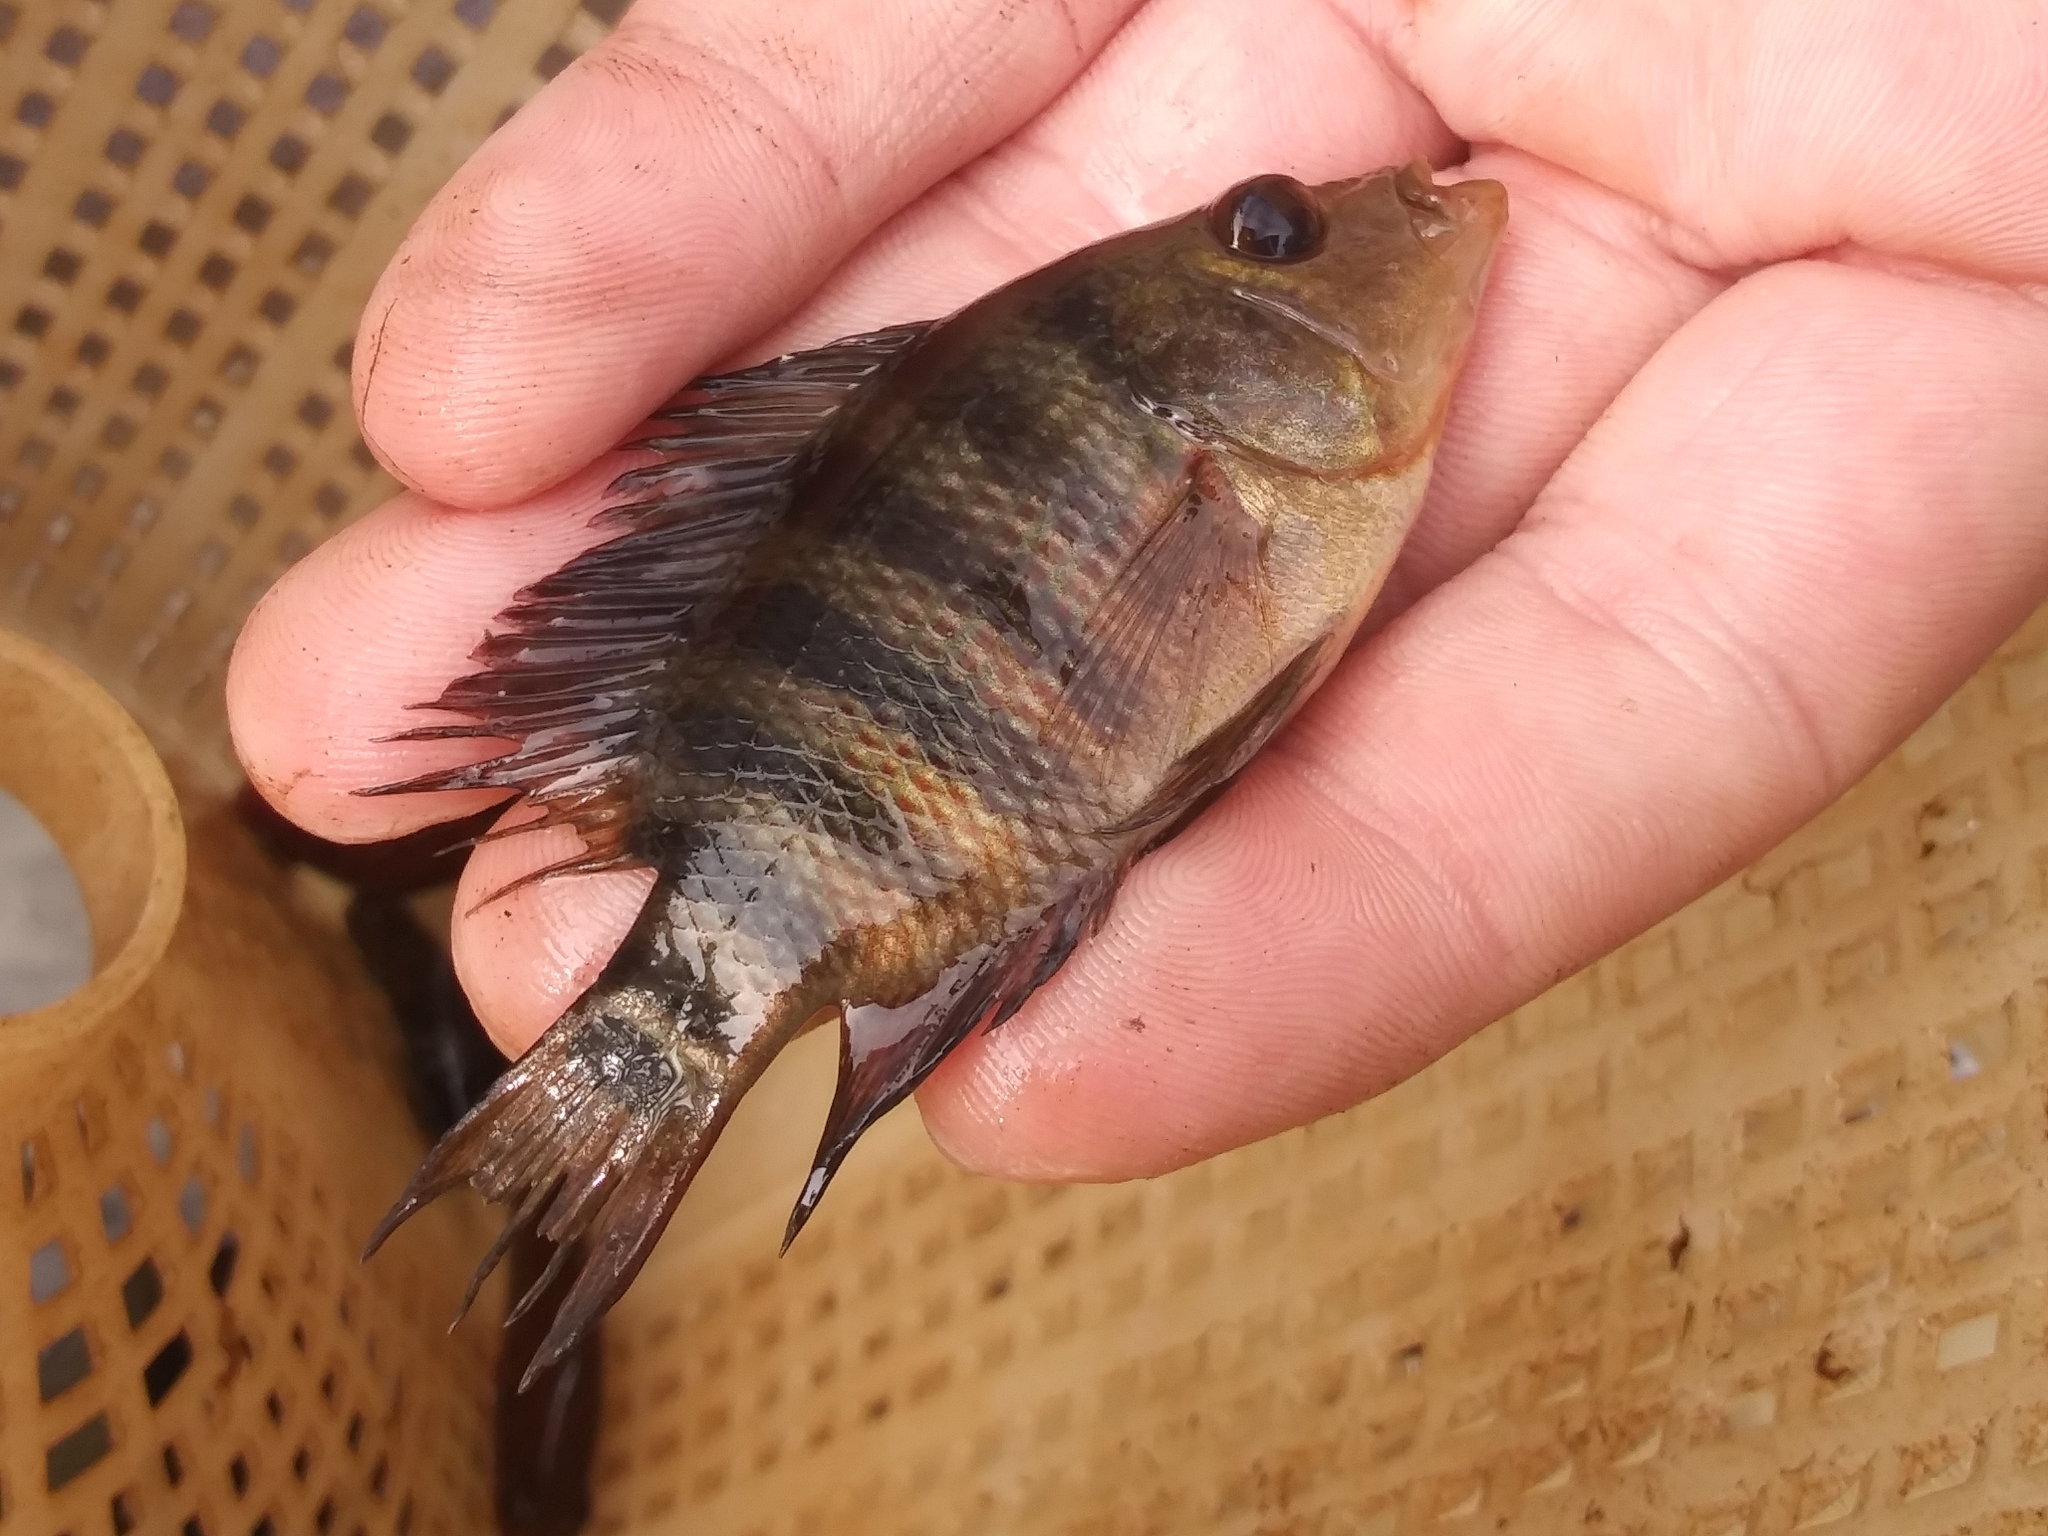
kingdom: Animalia
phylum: Chordata
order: Perciformes
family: Cichlidae
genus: Mayaheros
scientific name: Mayaheros urophthalmus
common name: Mayan cichlid
